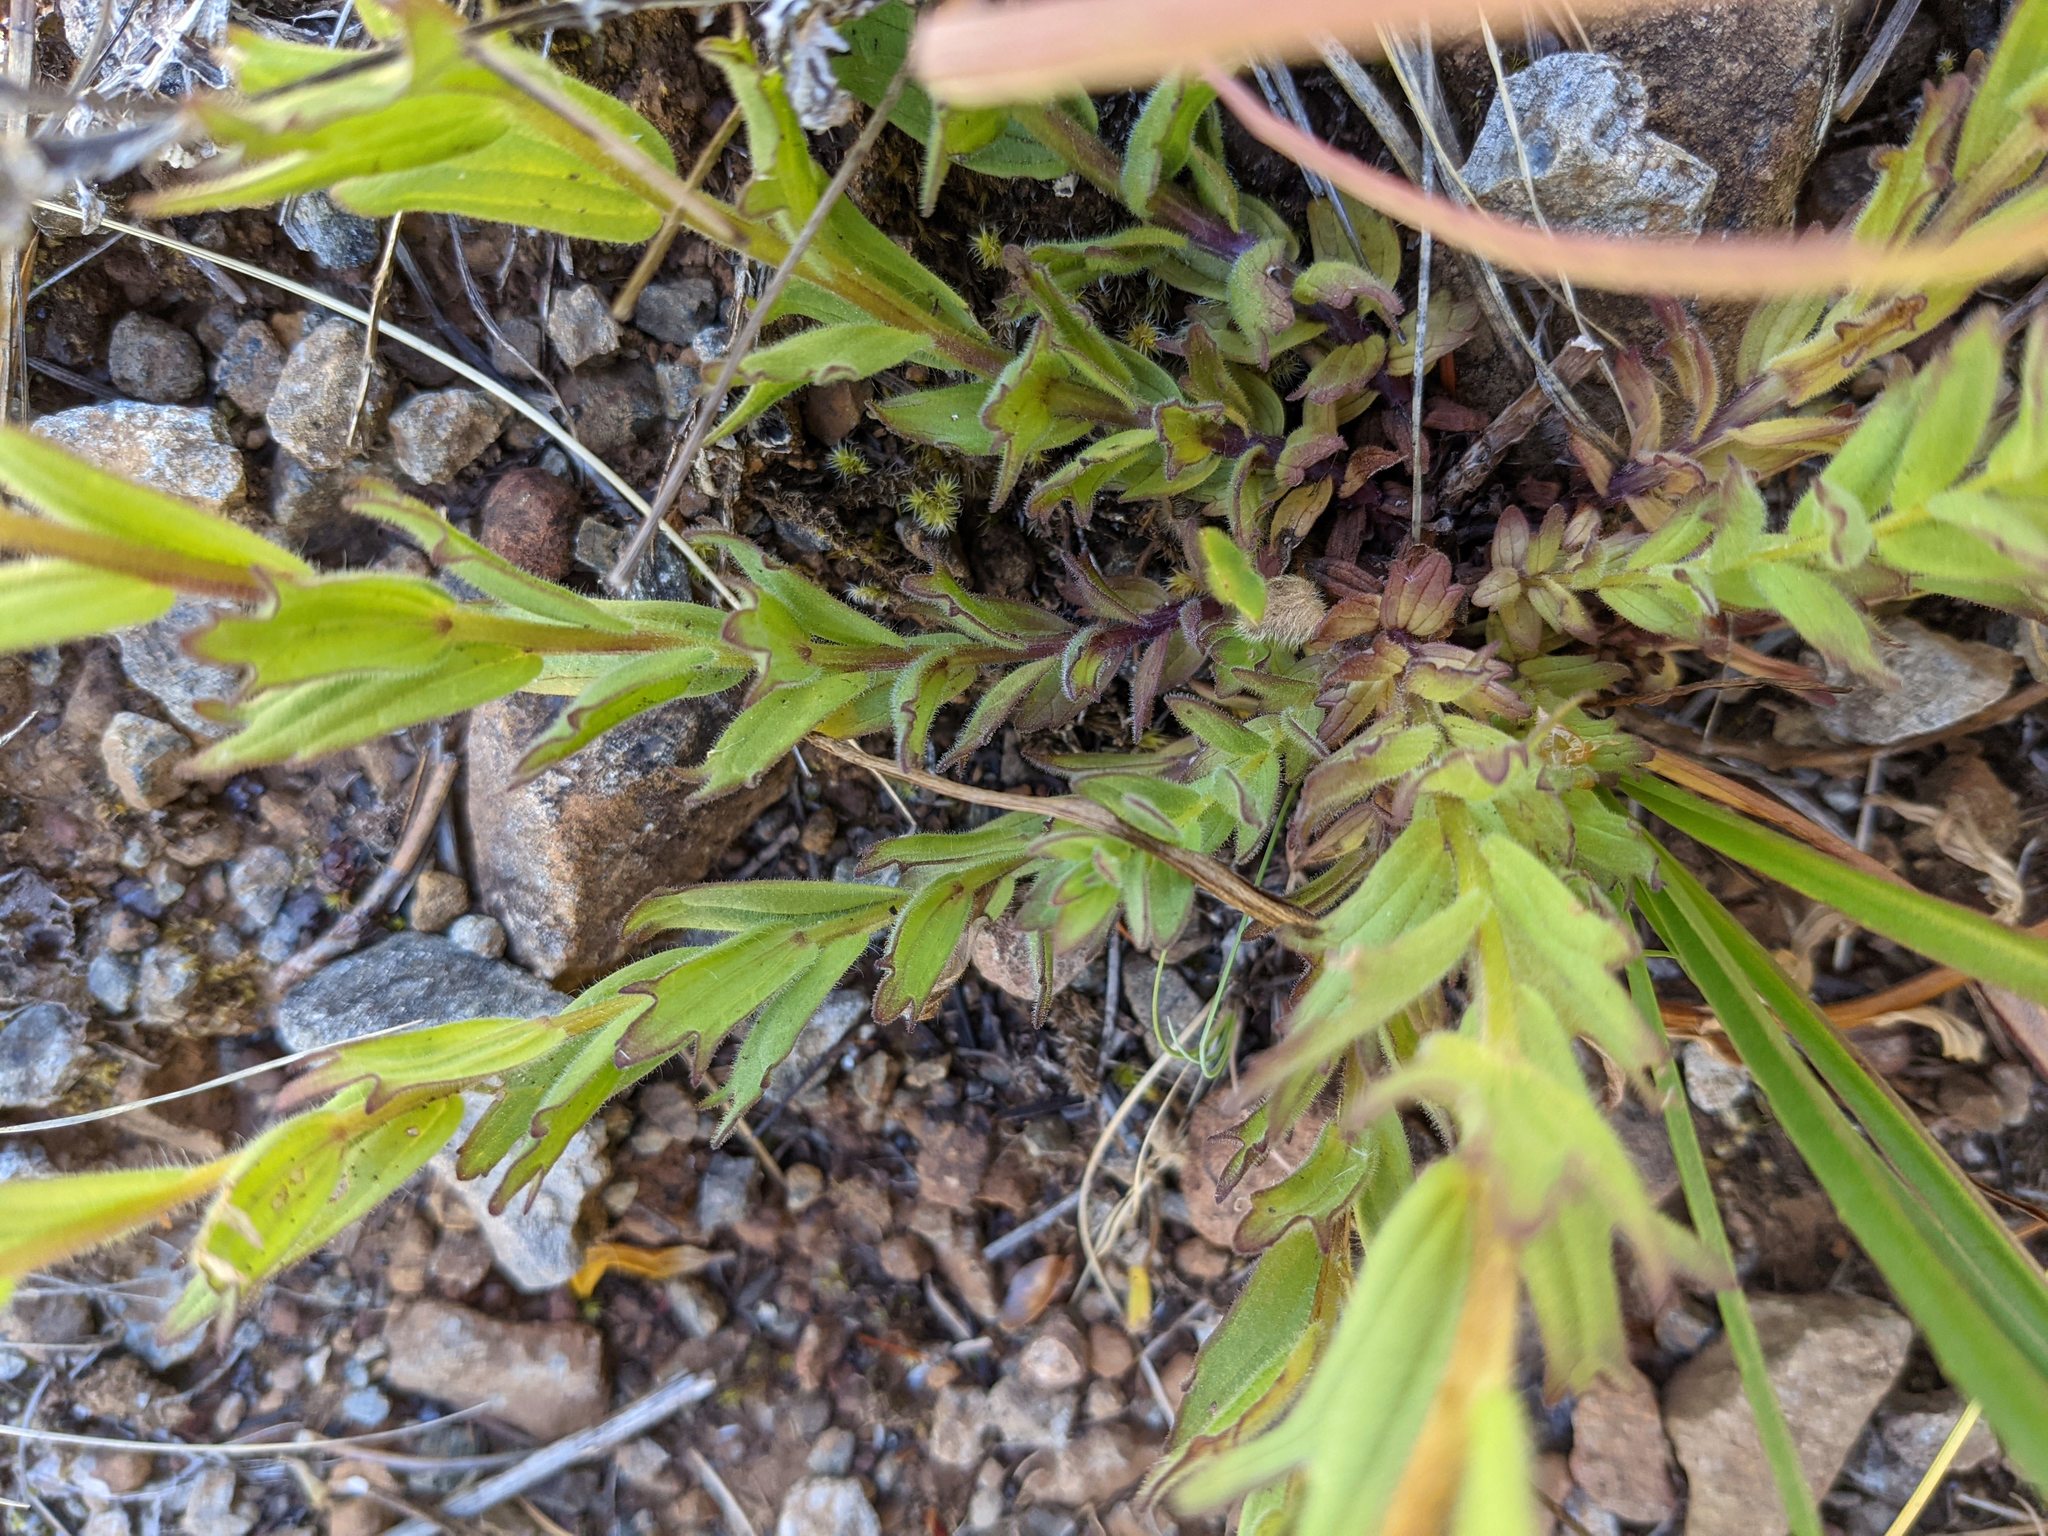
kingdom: Plantae
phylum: Tracheophyta
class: Magnoliopsida
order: Lamiales
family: Orobanchaceae
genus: Castilleja
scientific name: Castilleja brevilobata
